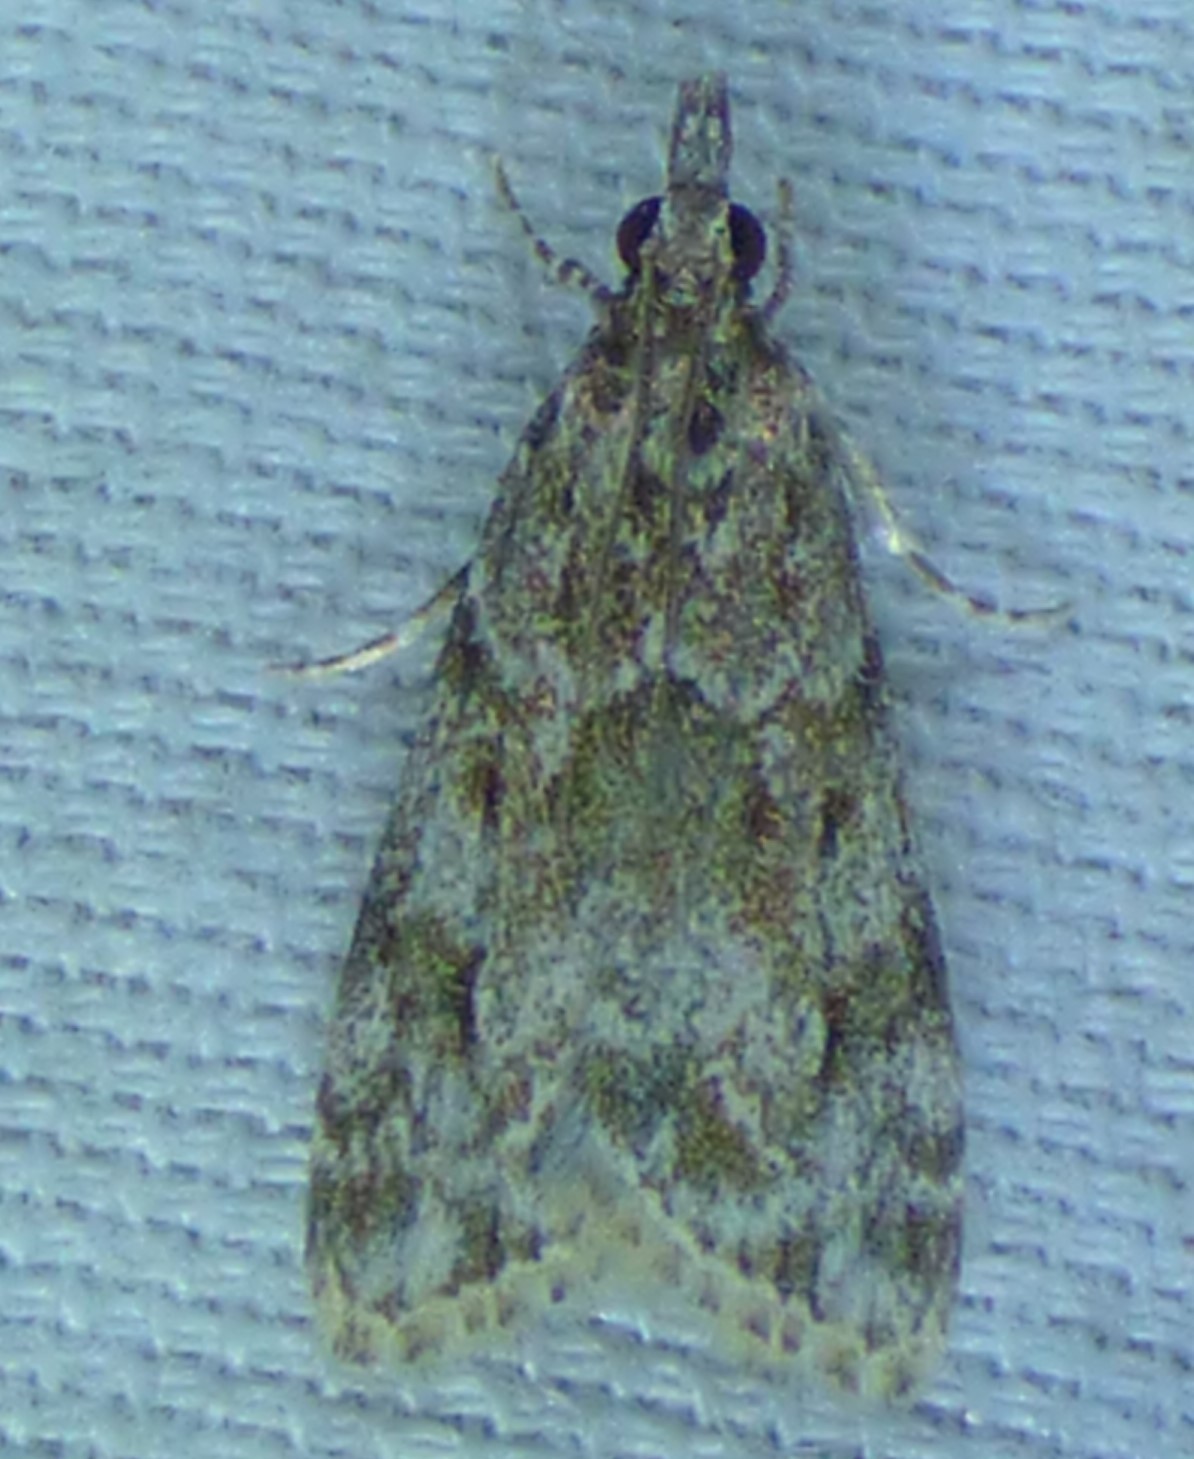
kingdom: Animalia
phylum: Arthropoda
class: Insecta
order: Lepidoptera
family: Crambidae
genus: Eudonia
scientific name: Eudonia heterosalis
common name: Mcdunnough's eudonia
